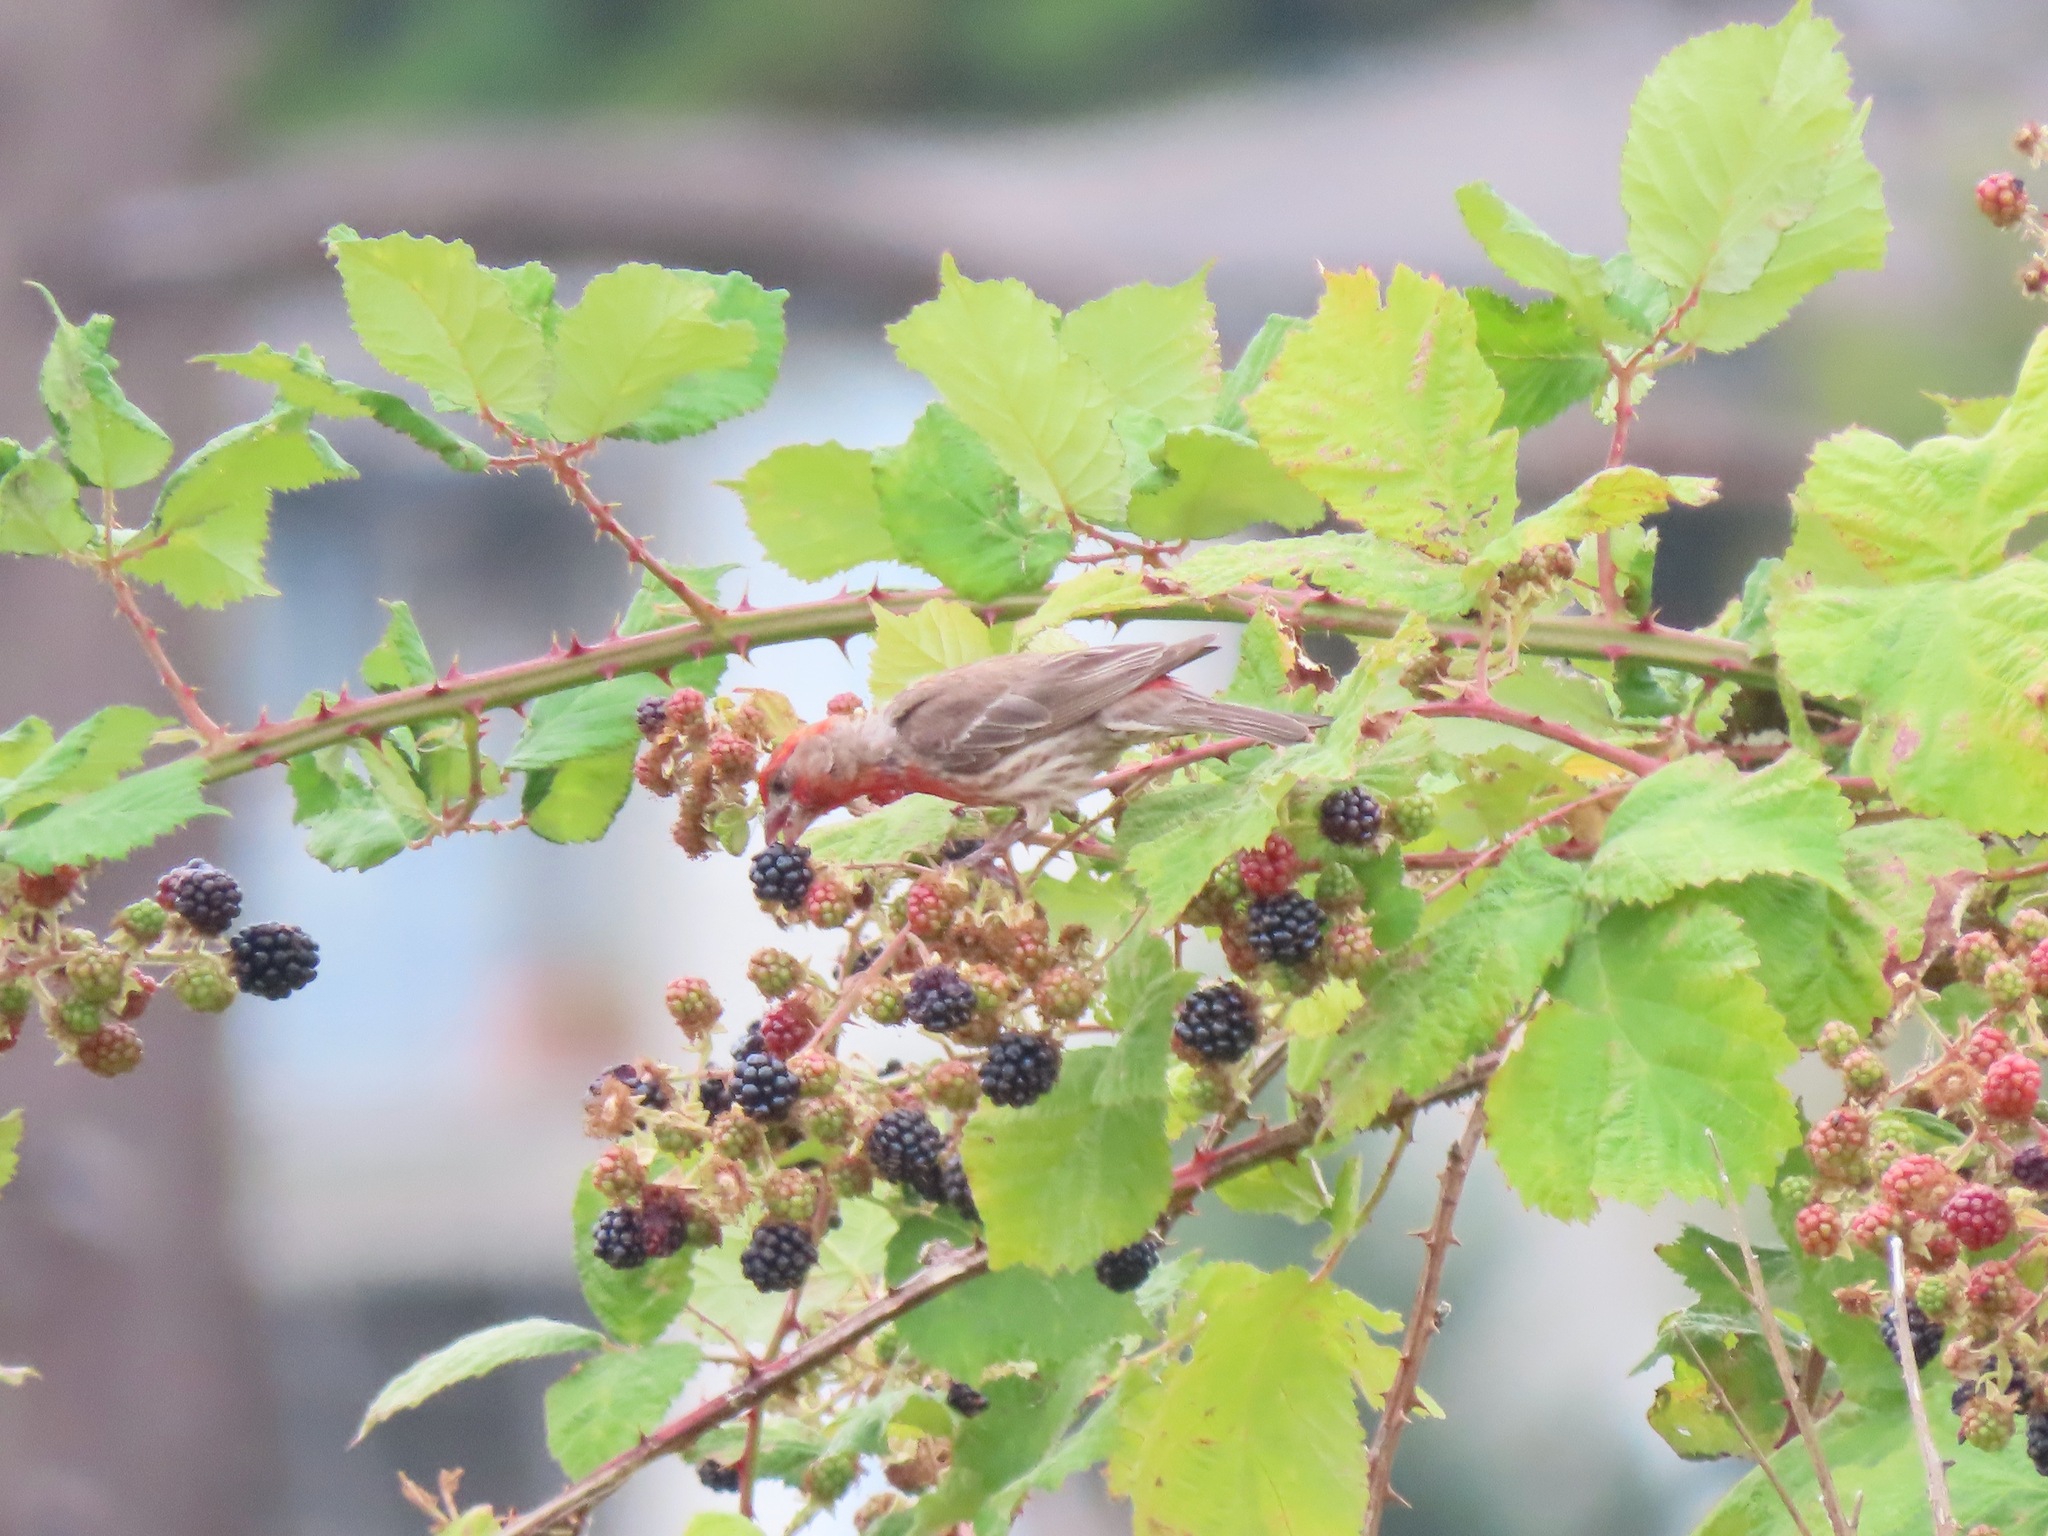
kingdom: Animalia
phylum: Chordata
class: Aves
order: Passeriformes
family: Fringillidae
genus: Haemorhous
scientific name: Haemorhous mexicanus
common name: House finch
